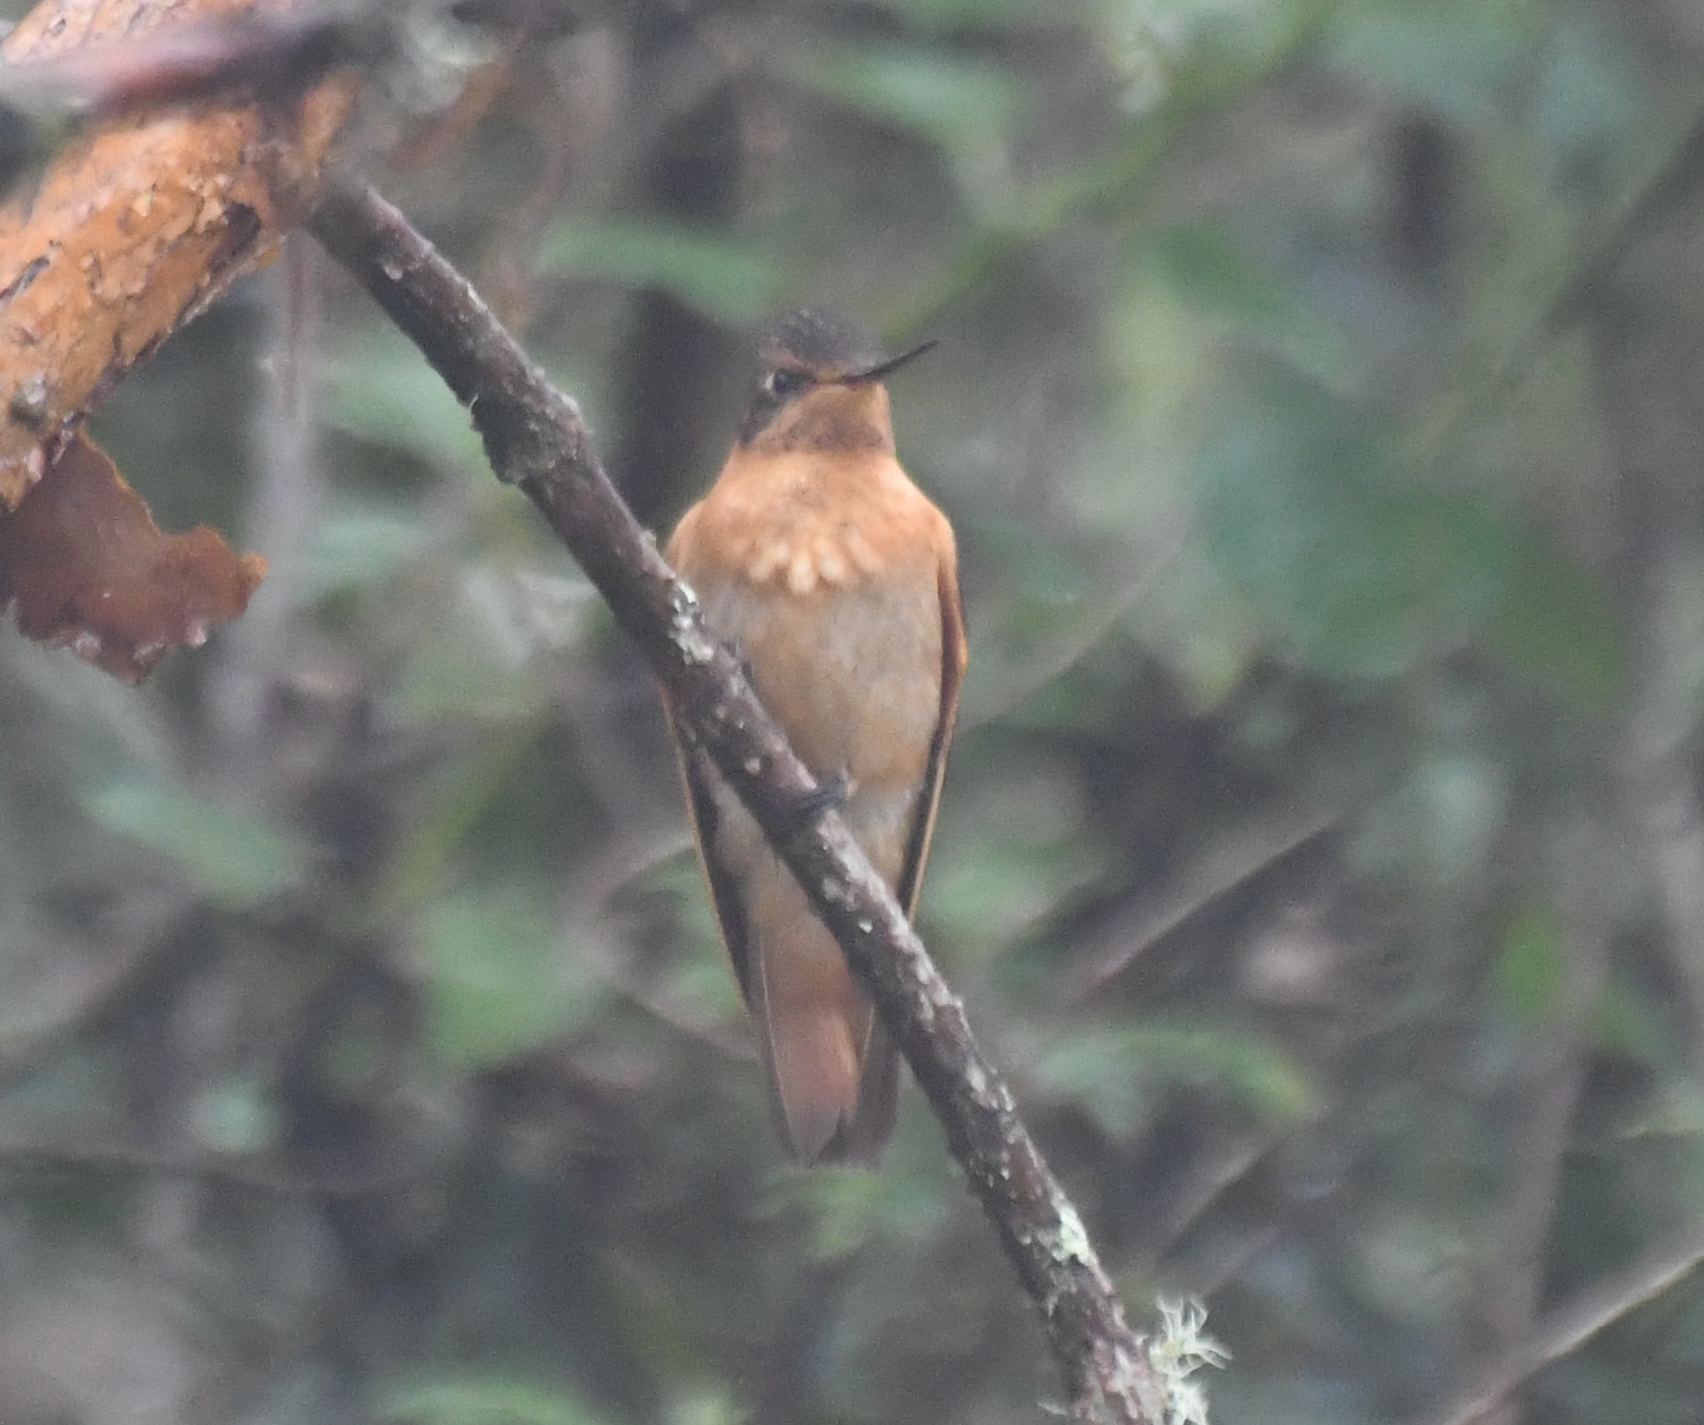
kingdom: Animalia
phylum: Chordata
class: Aves
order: Apodiformes
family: Trochilidae
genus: Aglaeactis
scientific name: Aglaeactis cupripennis
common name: Shining sunbeam
